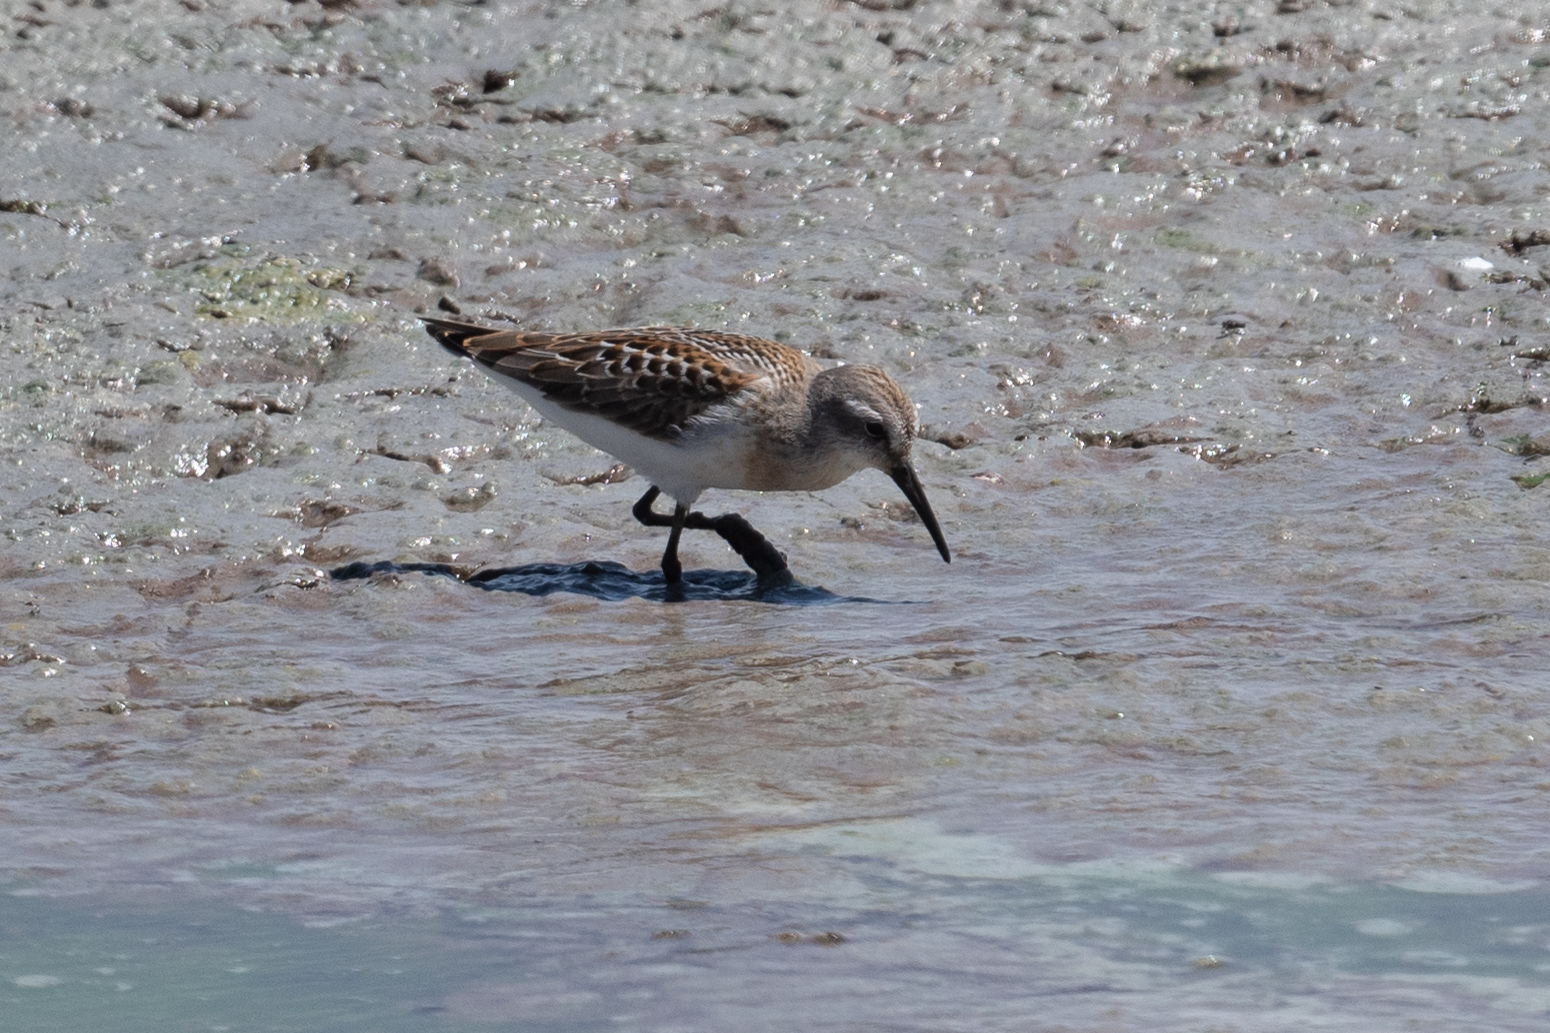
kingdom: Animalia
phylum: Chordata
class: Aves
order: Charadriiformes
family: Scolopacidae
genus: Calidris
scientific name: Calidris mauri
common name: Western sandpiper
